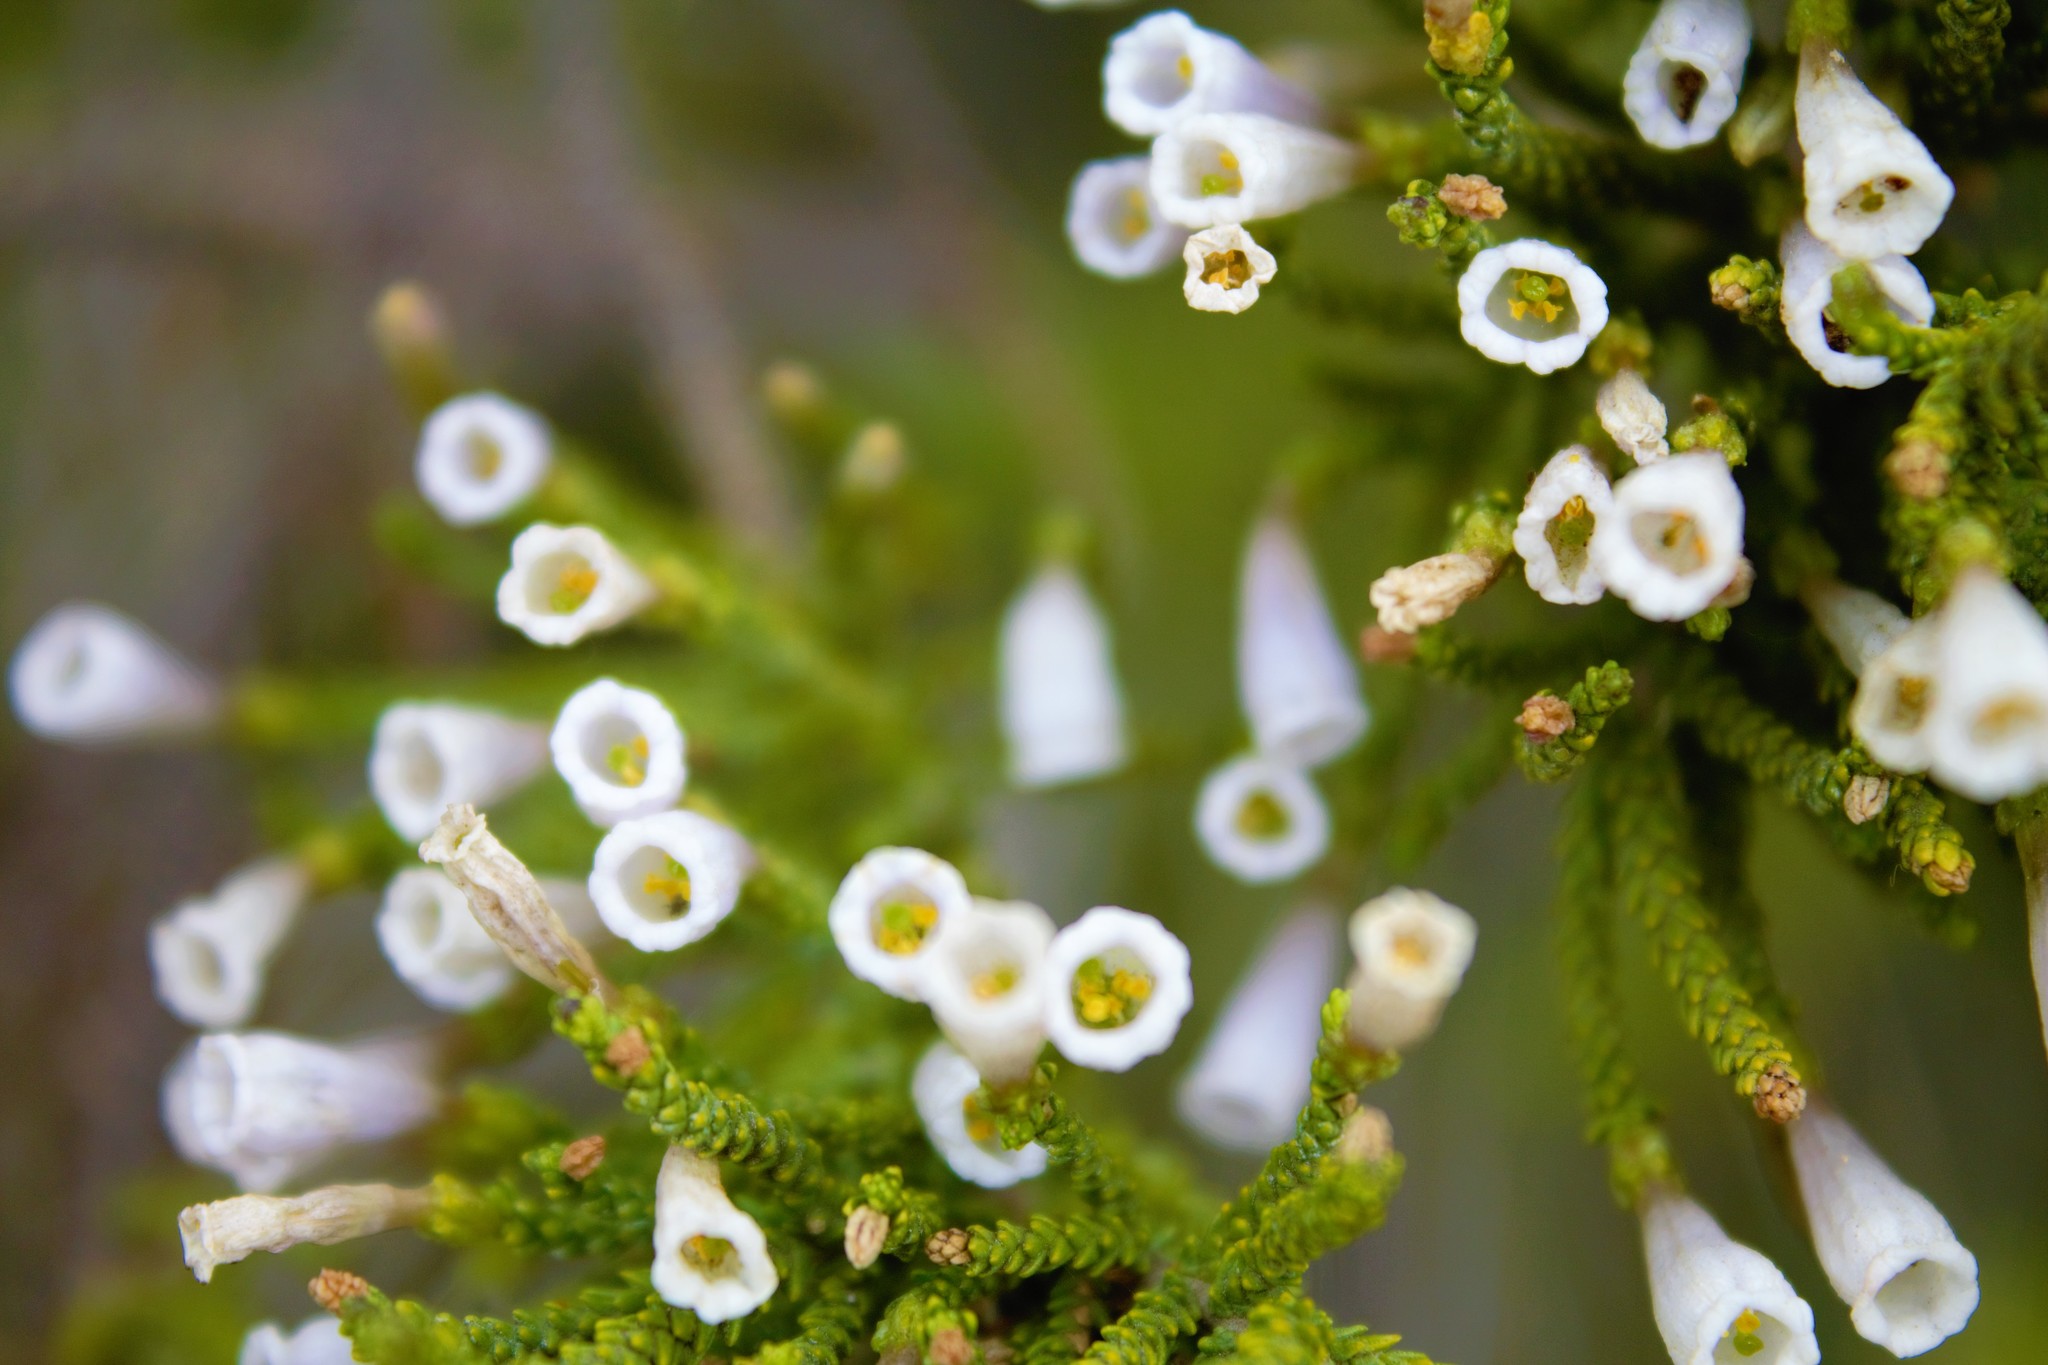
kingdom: Plantae
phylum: Tracheophyta
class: Magnoliopsida
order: Solanales
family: Solanaceae
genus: Fabiana
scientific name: Fabiana imbricata
